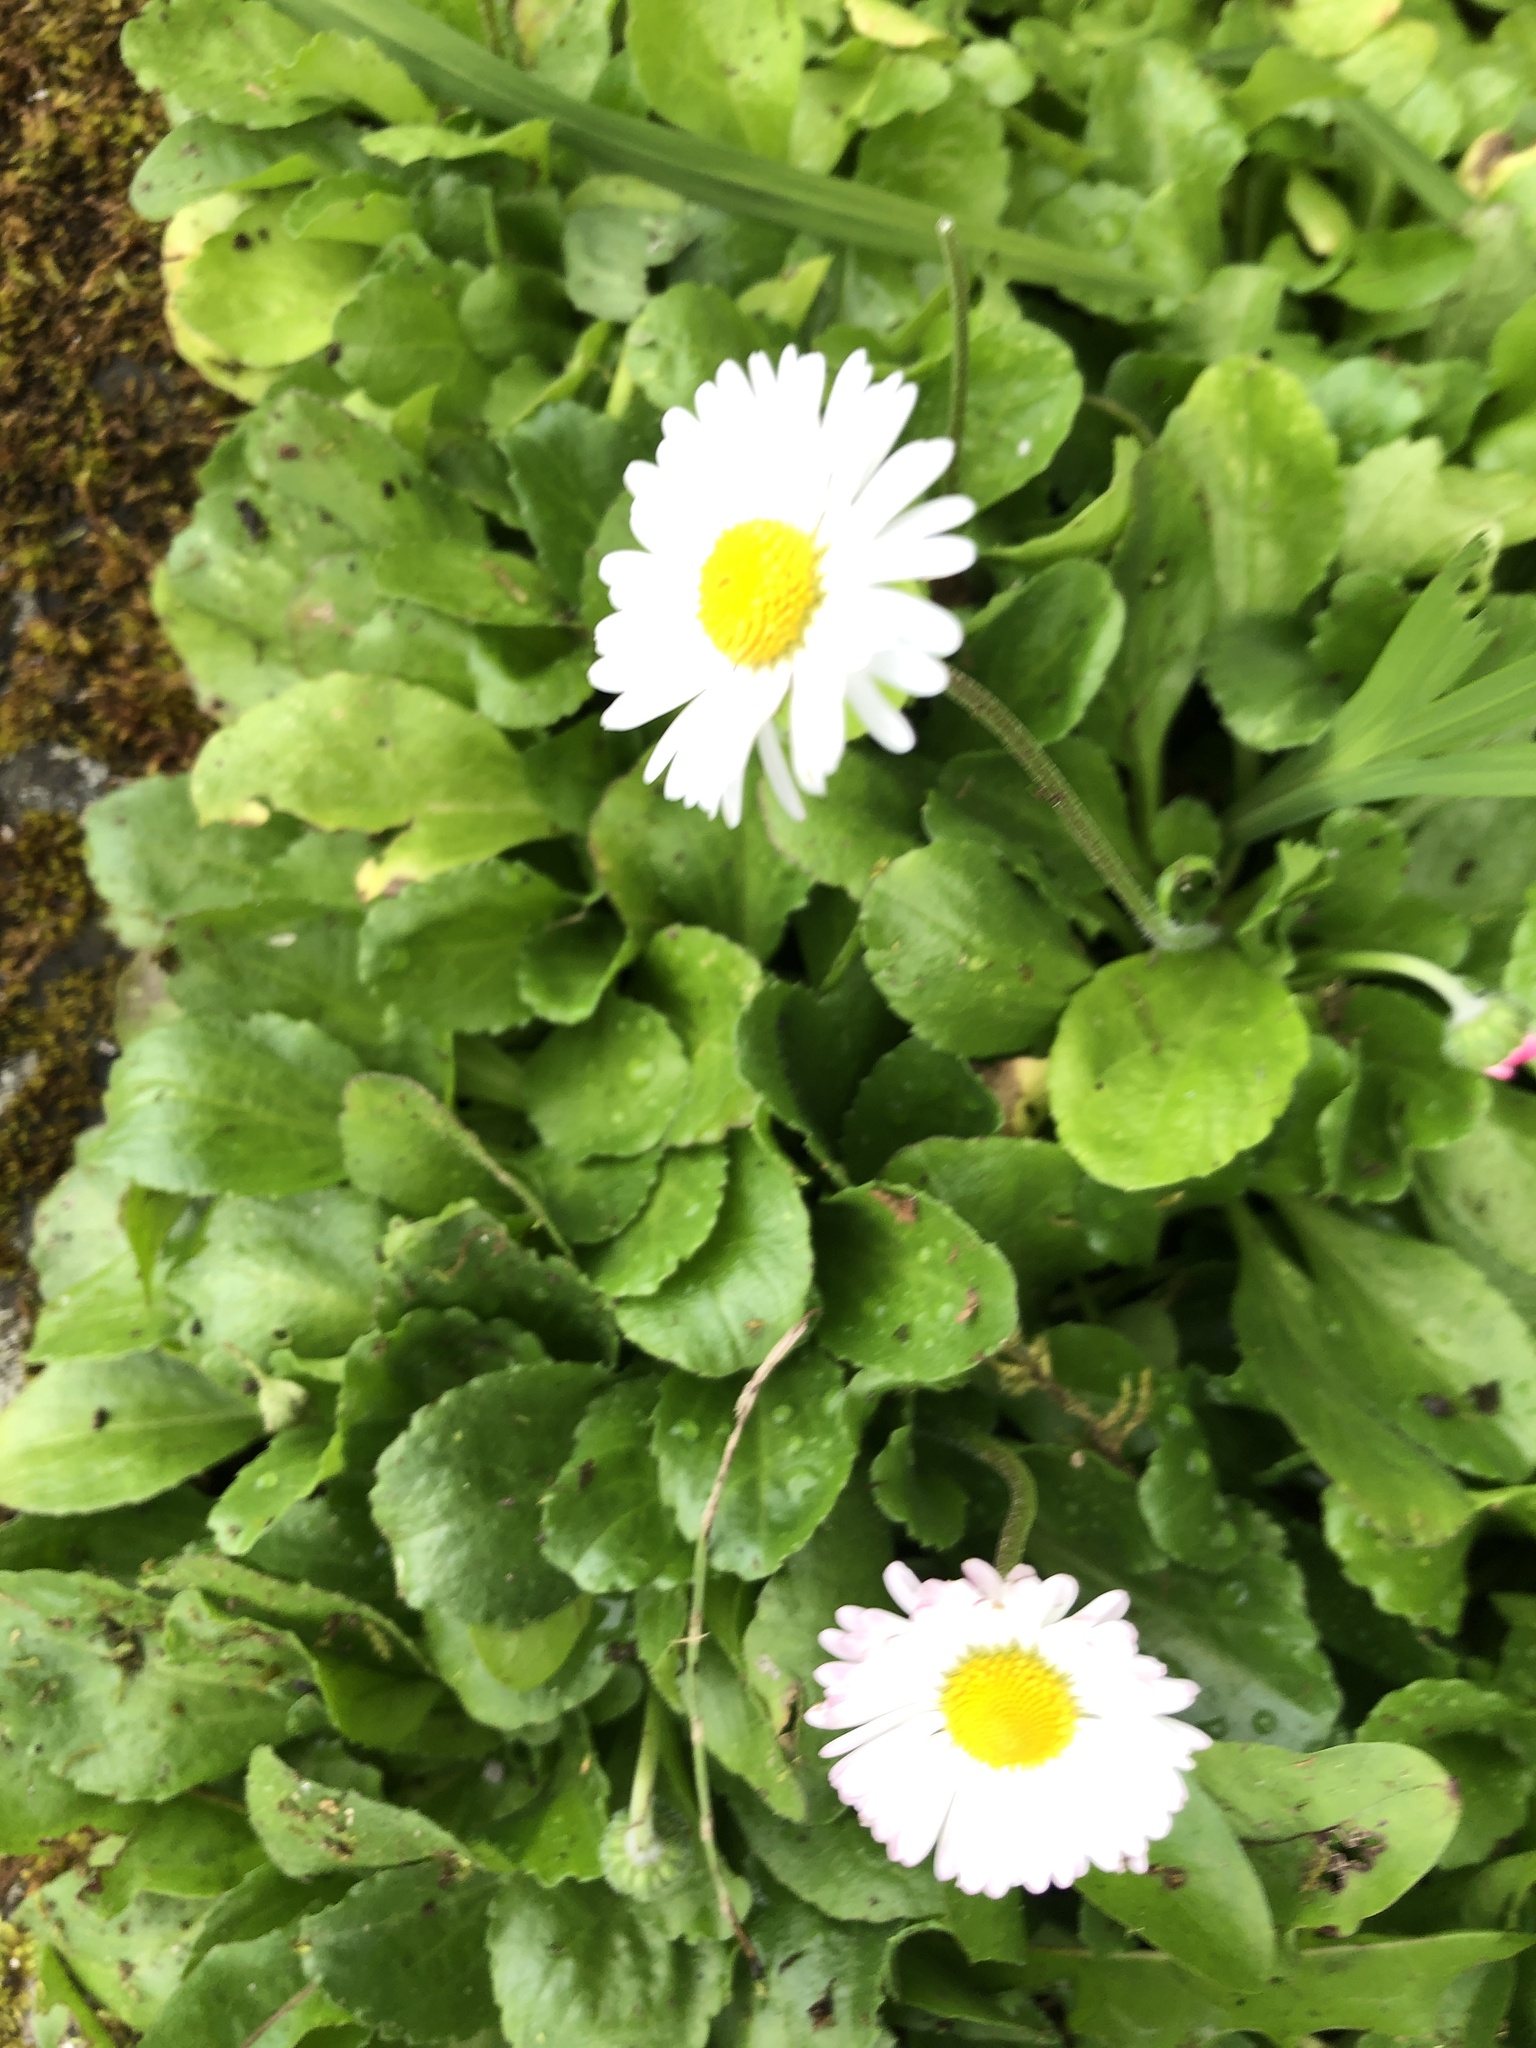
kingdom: Plantae
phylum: Tracheophyta
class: Magnoliopsida
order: Asterales
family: Asteraceae
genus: Bellis
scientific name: Bellis perennis
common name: Lawndaisy
